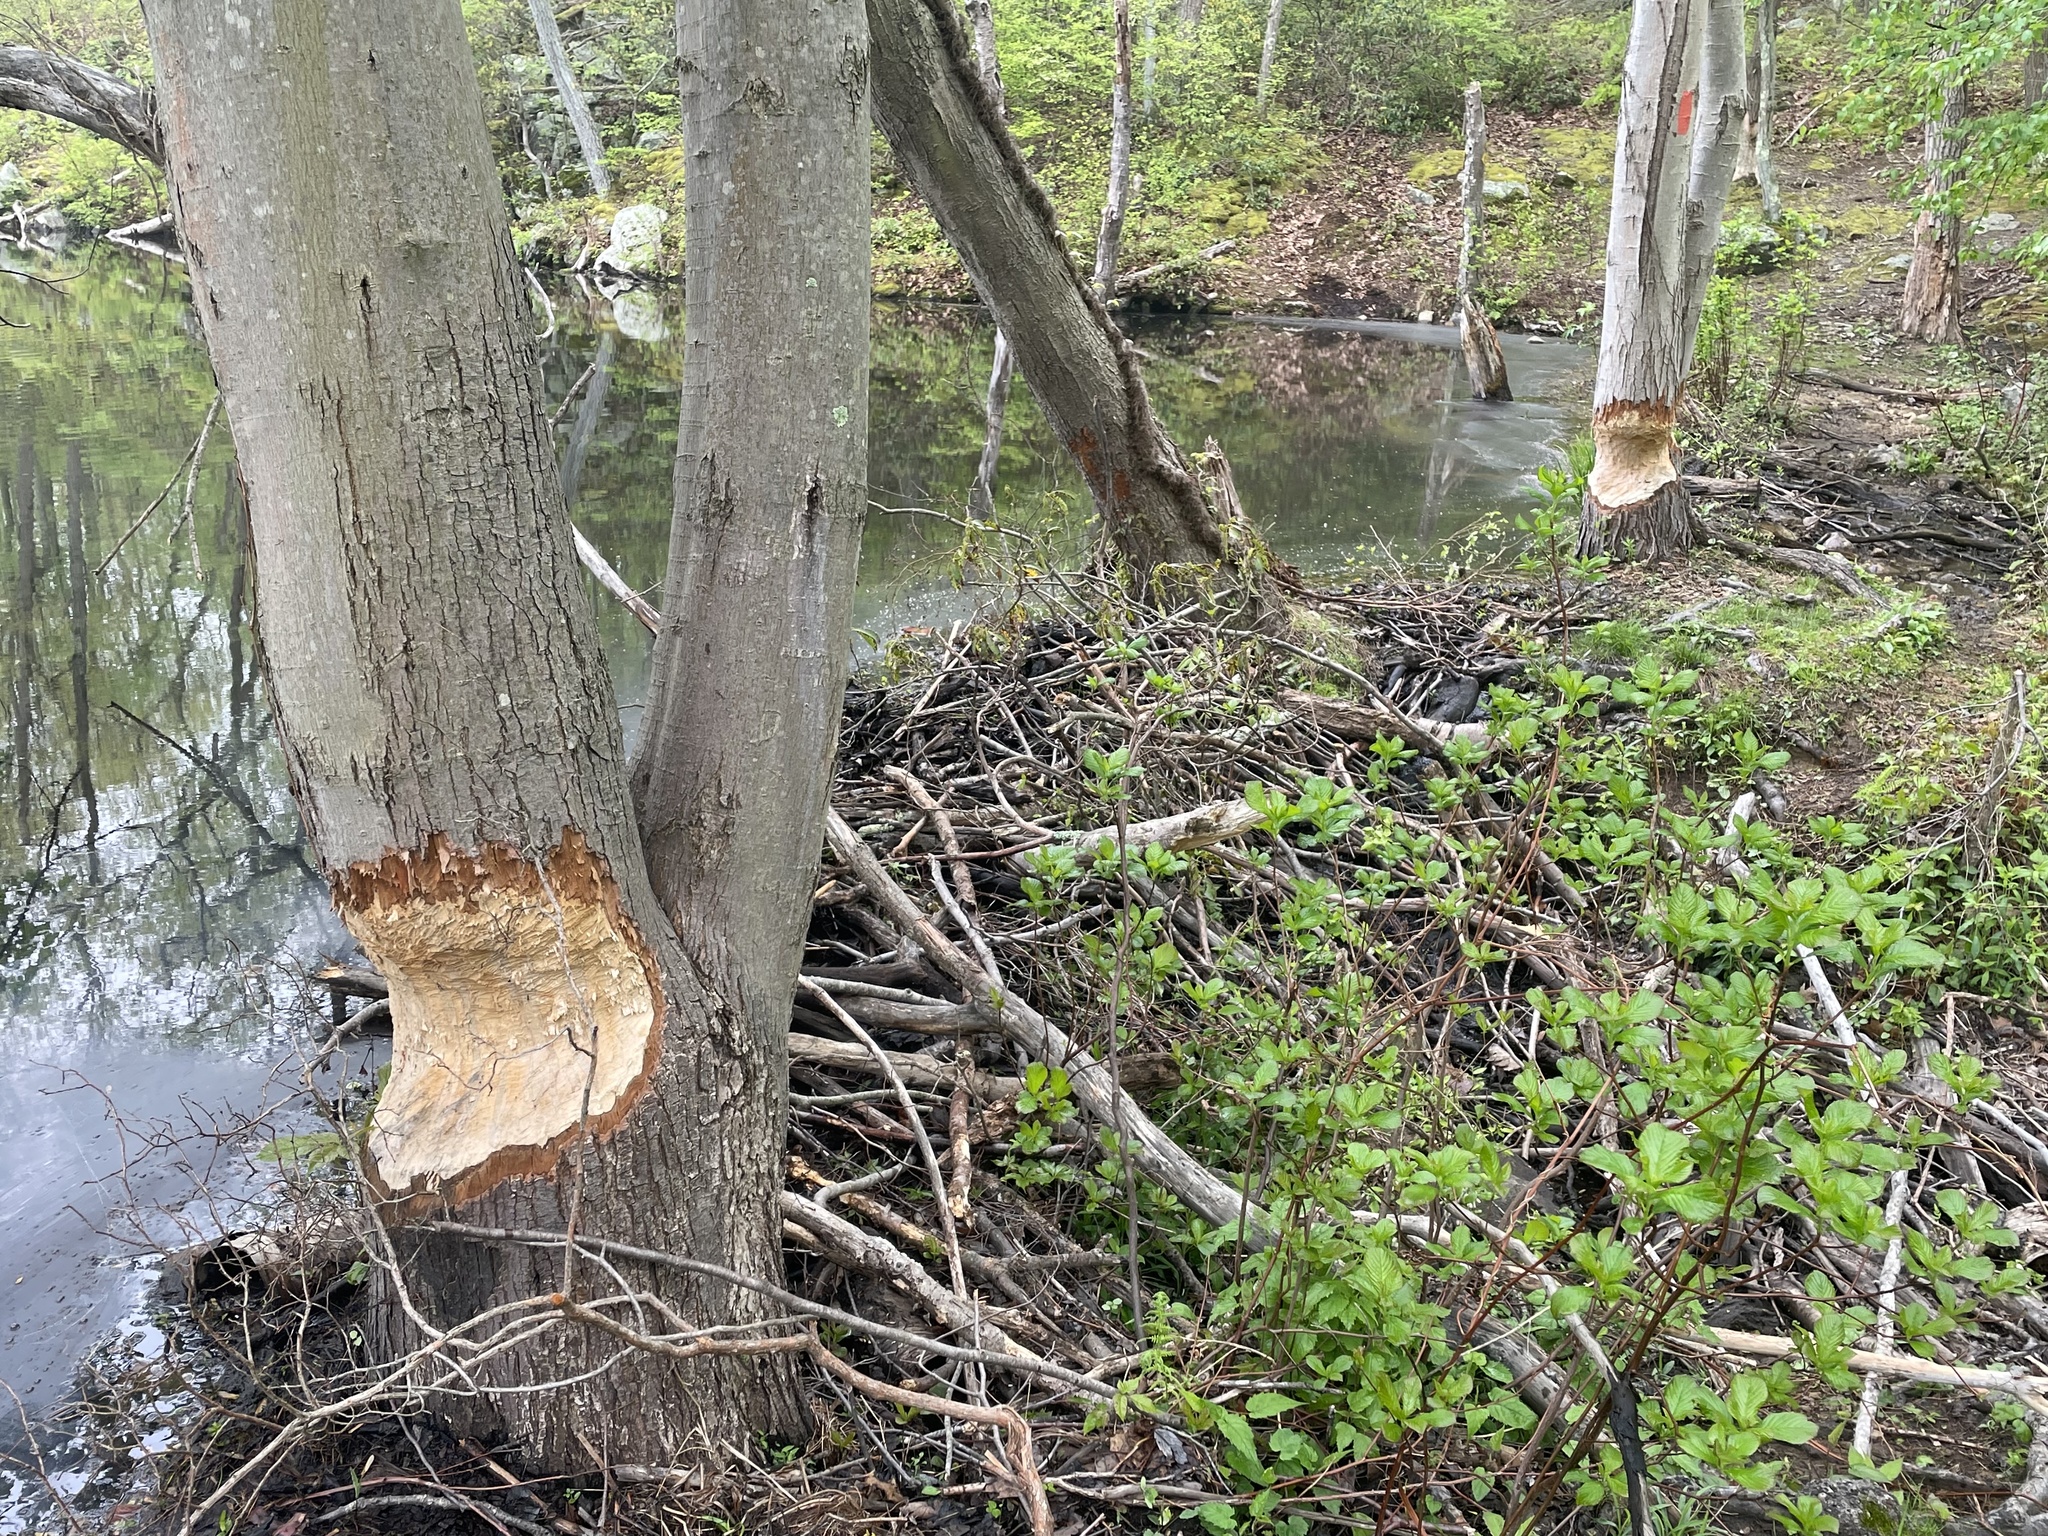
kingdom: Animalia
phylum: Chordata
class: Mammalia
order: Rodentia
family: Castoridae
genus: Castor
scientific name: Castor canadensis
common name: American beaver
